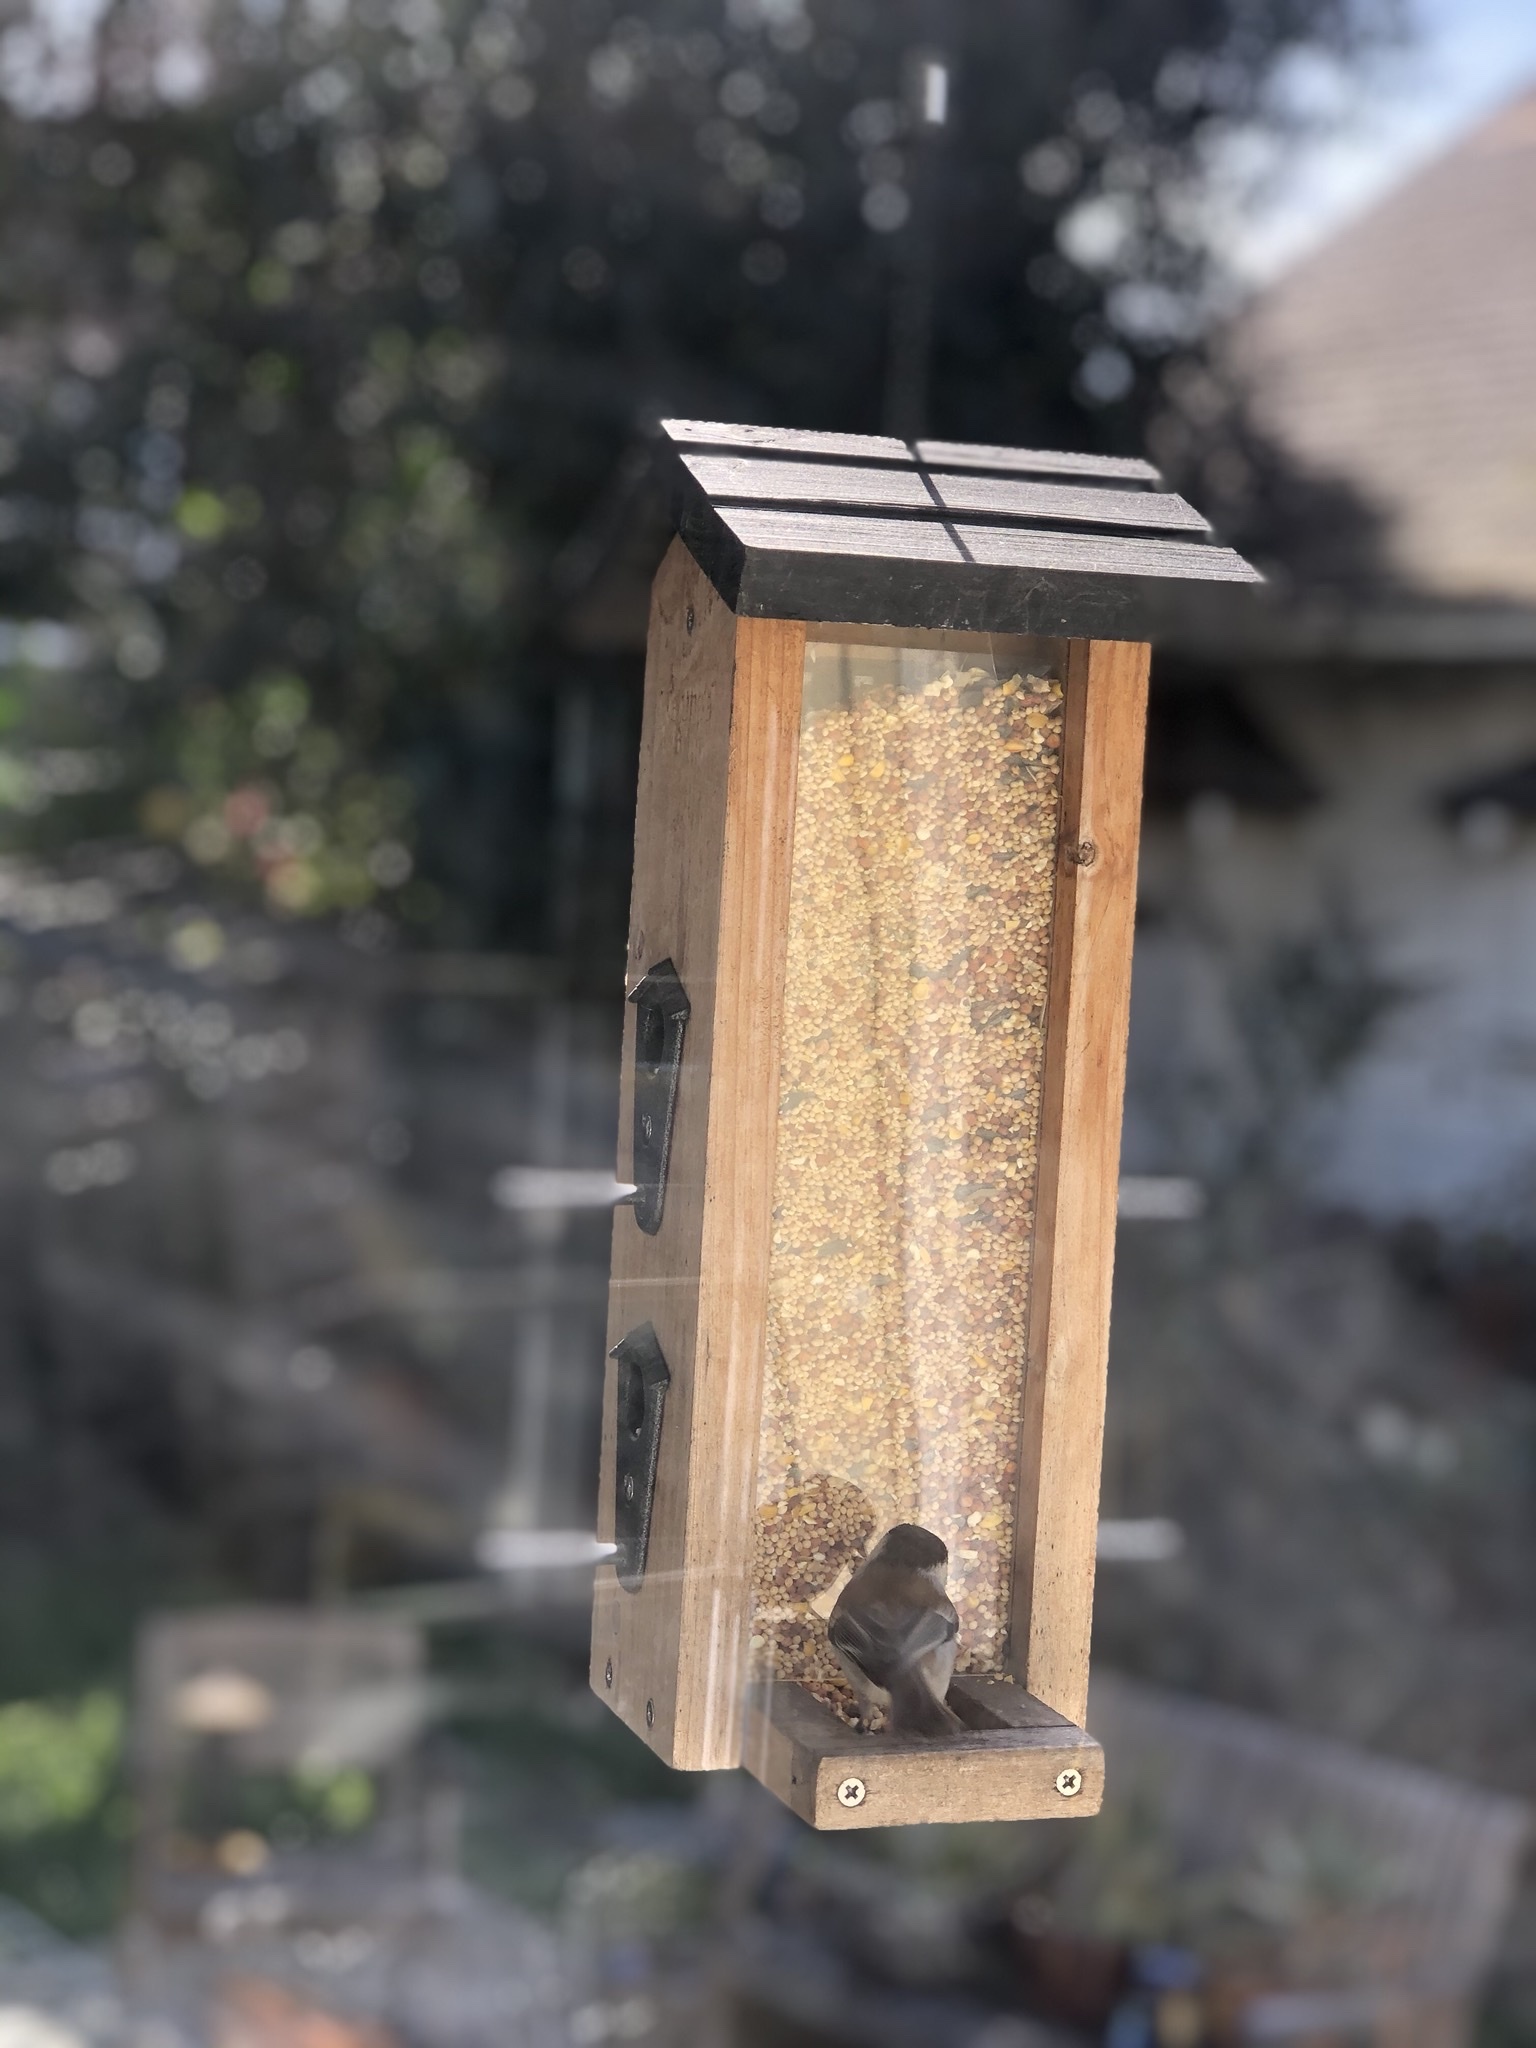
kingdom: Animalia
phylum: Chordata
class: Aves
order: Passeriformes
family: Paridae
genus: Poecile
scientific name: Poecile rufescens
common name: Chestnut-backed chickadee
